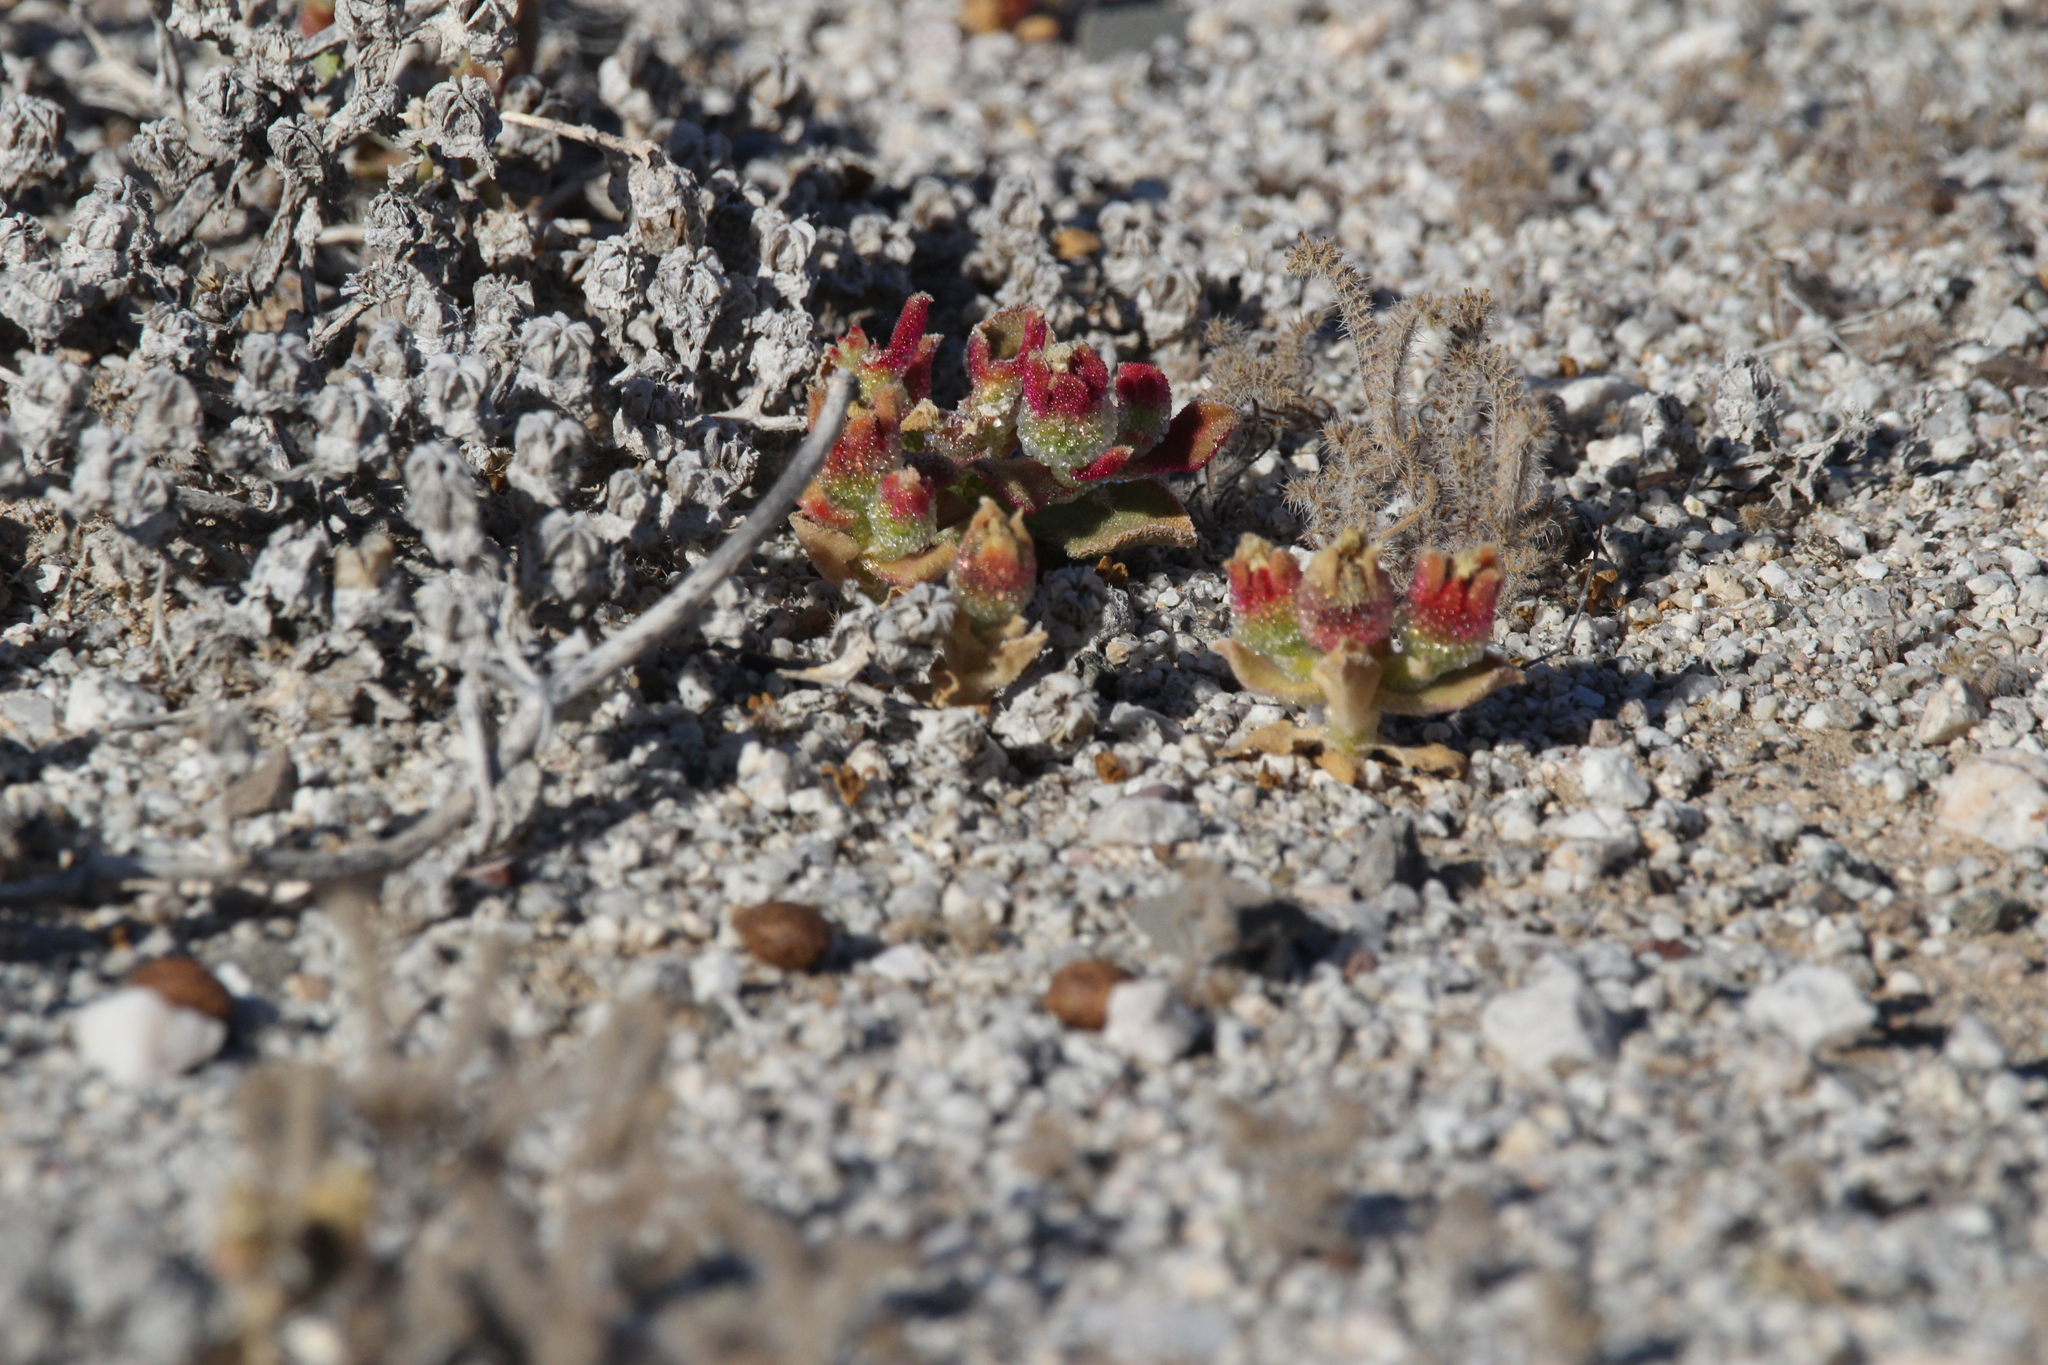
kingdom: Plantae
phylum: Tracheophyta
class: Magnoliopsida
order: Caryophyllales
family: Aizoaceae
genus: Mesembryanthemum
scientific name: Mesembryanthemum crystallinum
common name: Common iceplant
